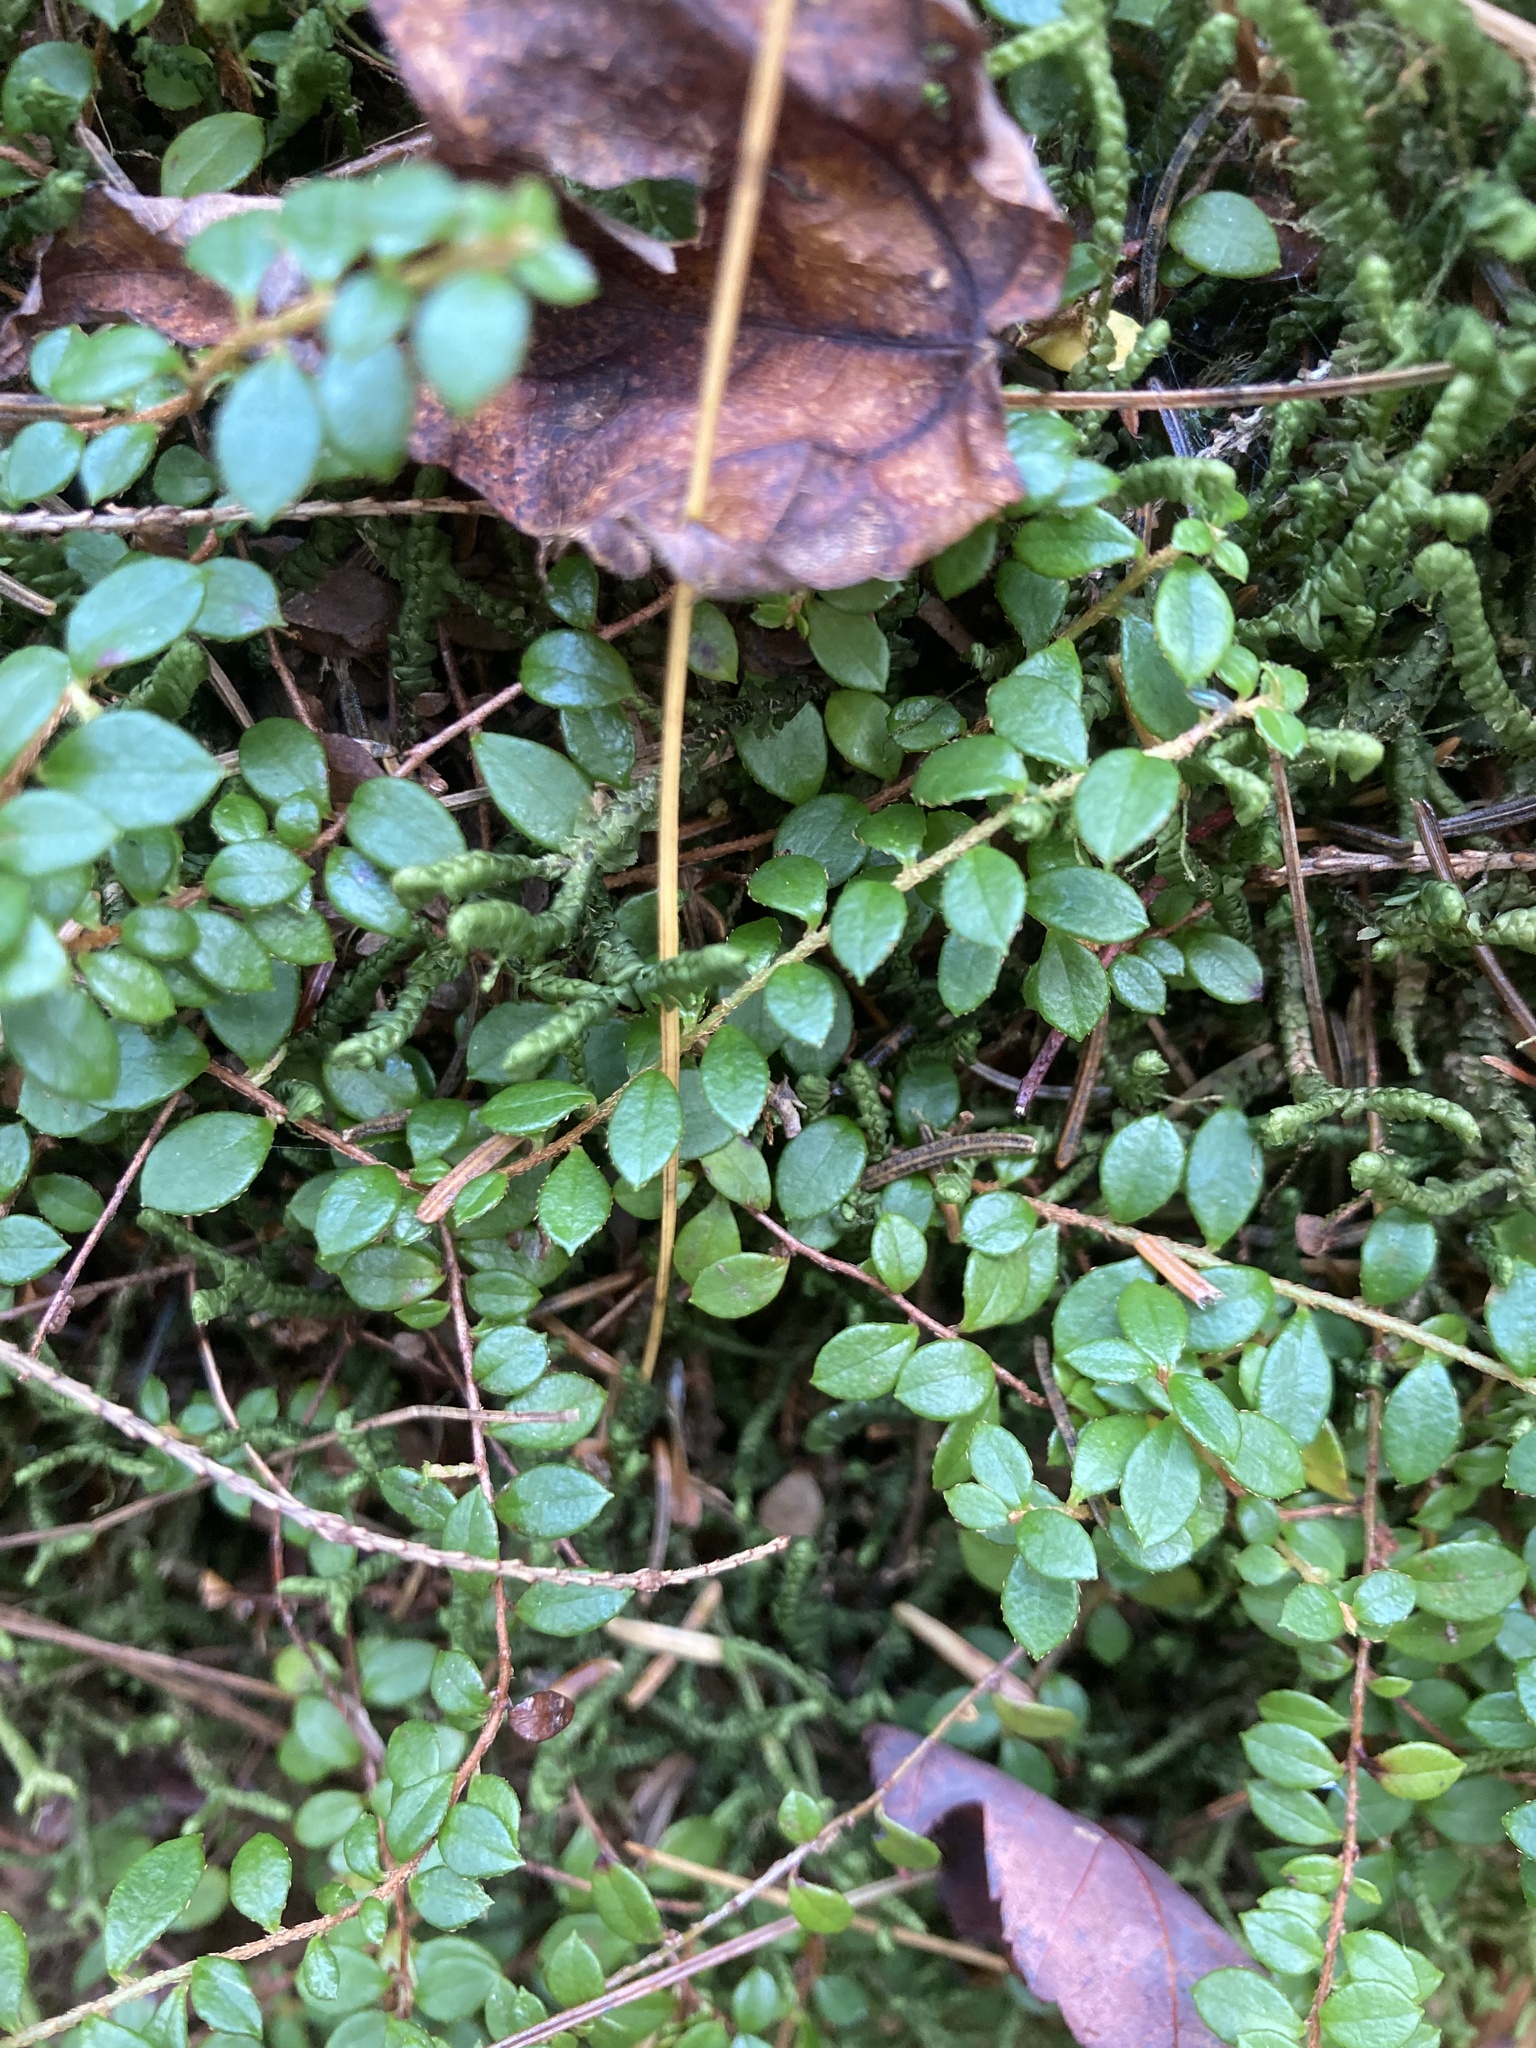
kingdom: Plantae
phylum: Tracheophyta
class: Magnoliopsida
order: Ericales
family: Ericaceae
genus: Gaultheria
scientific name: Gaultheria hispidula
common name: Cancer wintergreen
